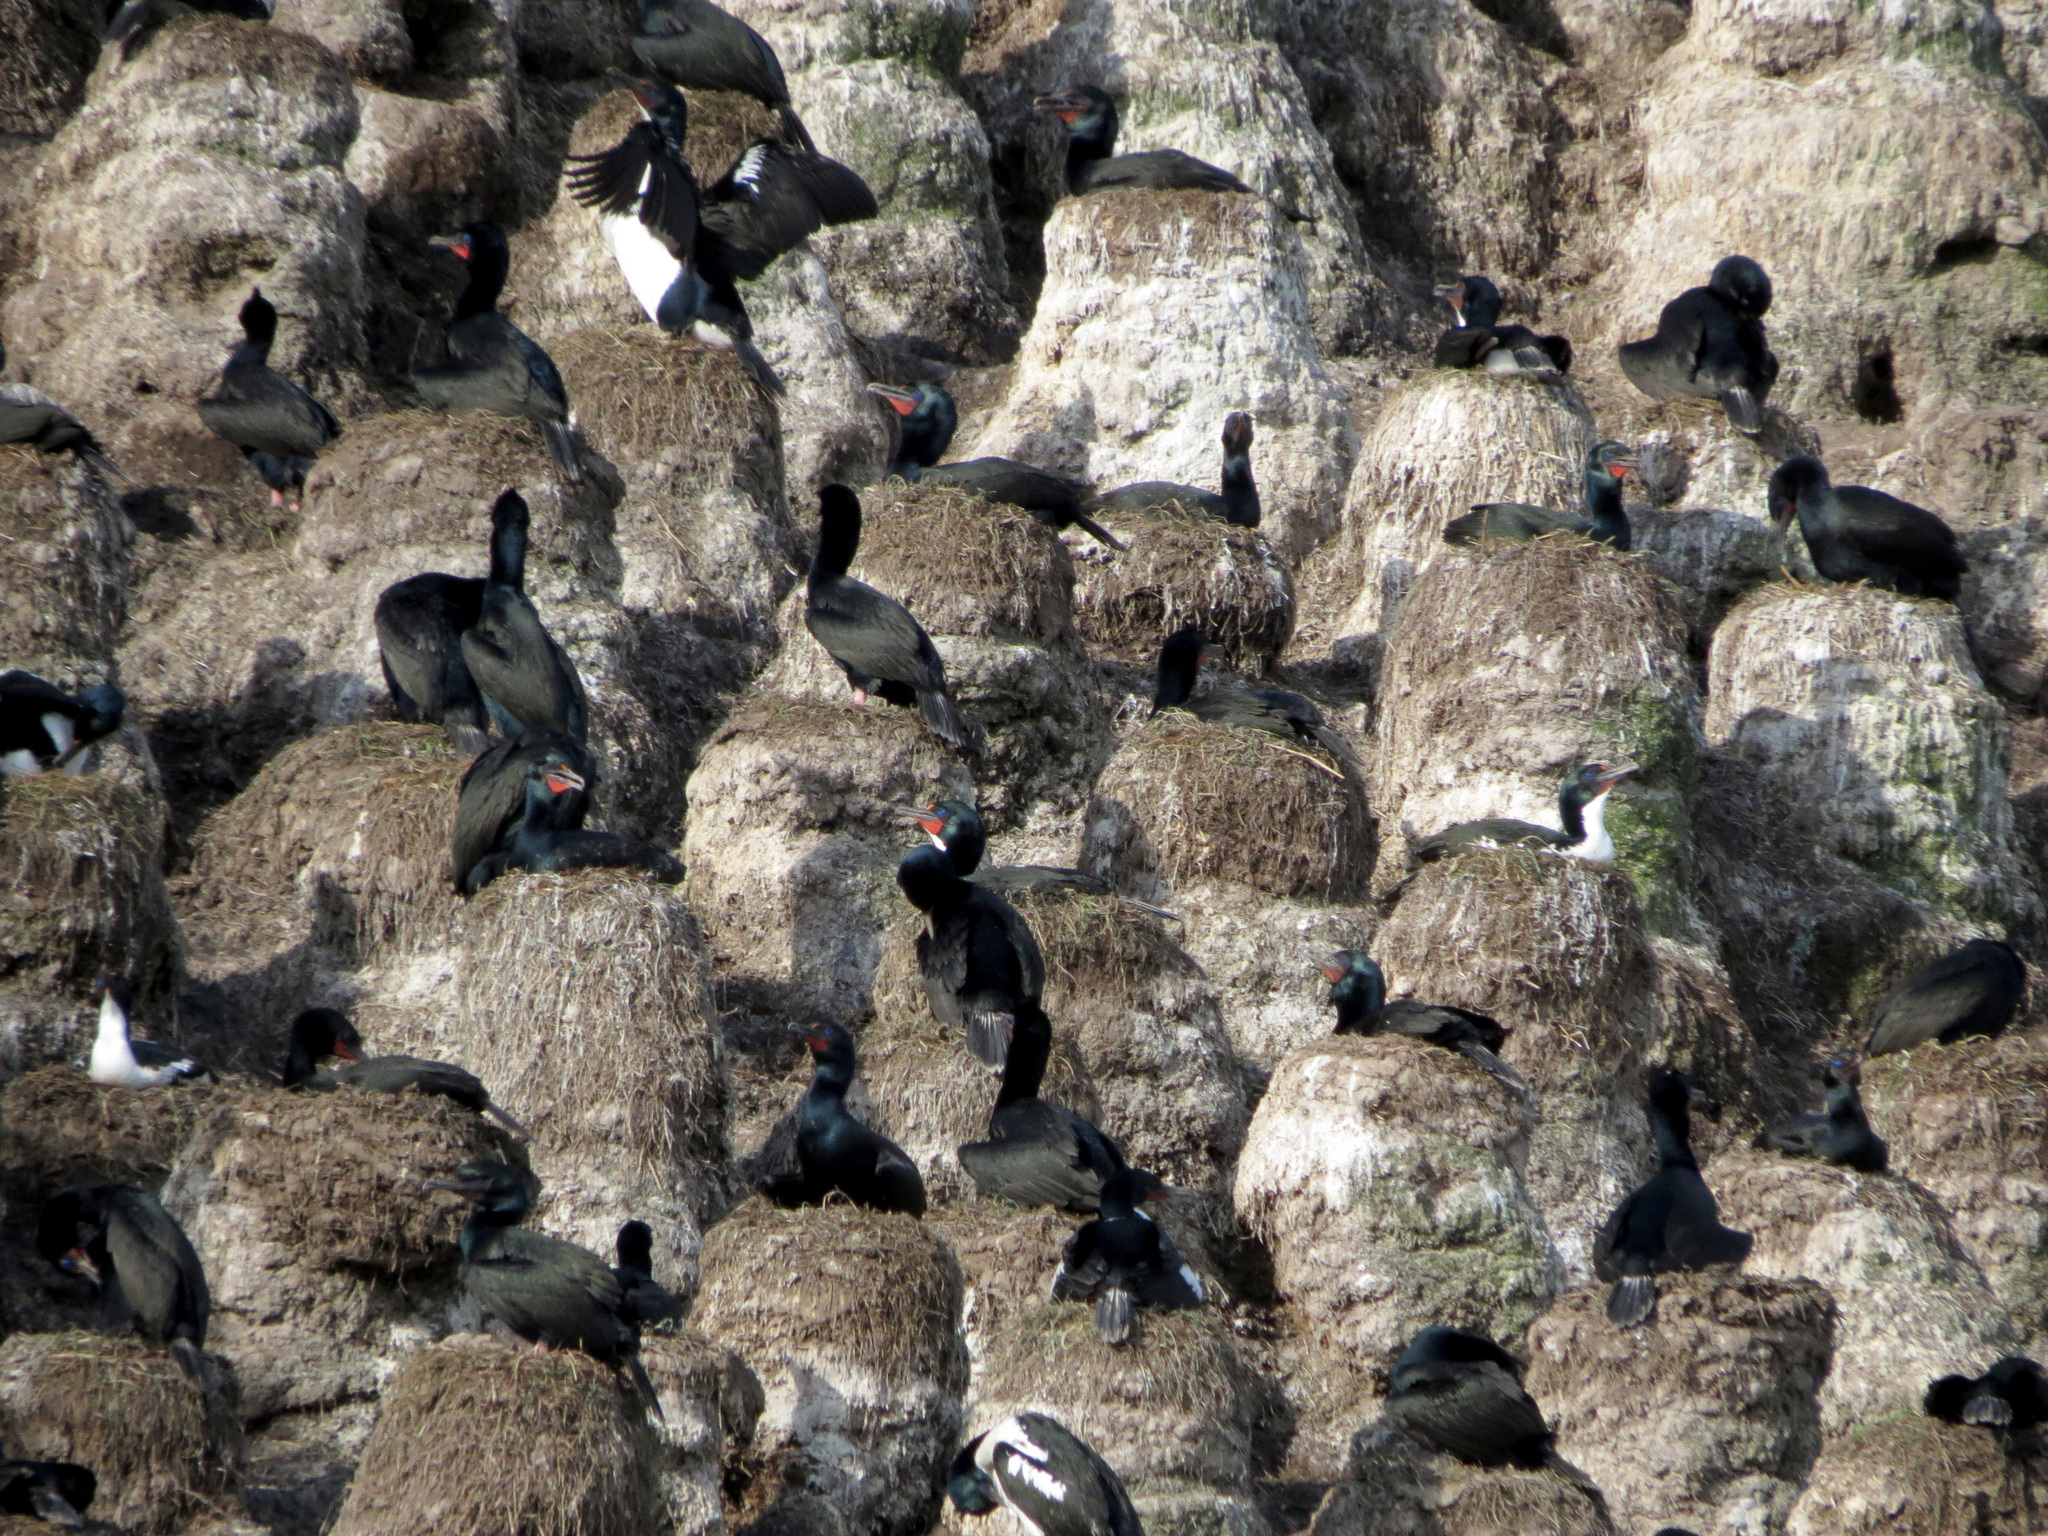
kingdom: Animalia
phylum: Chordata
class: Aves
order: Suliformes
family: Phalacrocoracidae
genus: Leucocarbo
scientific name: Leucocarbo chalconotus
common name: Stewart shag
